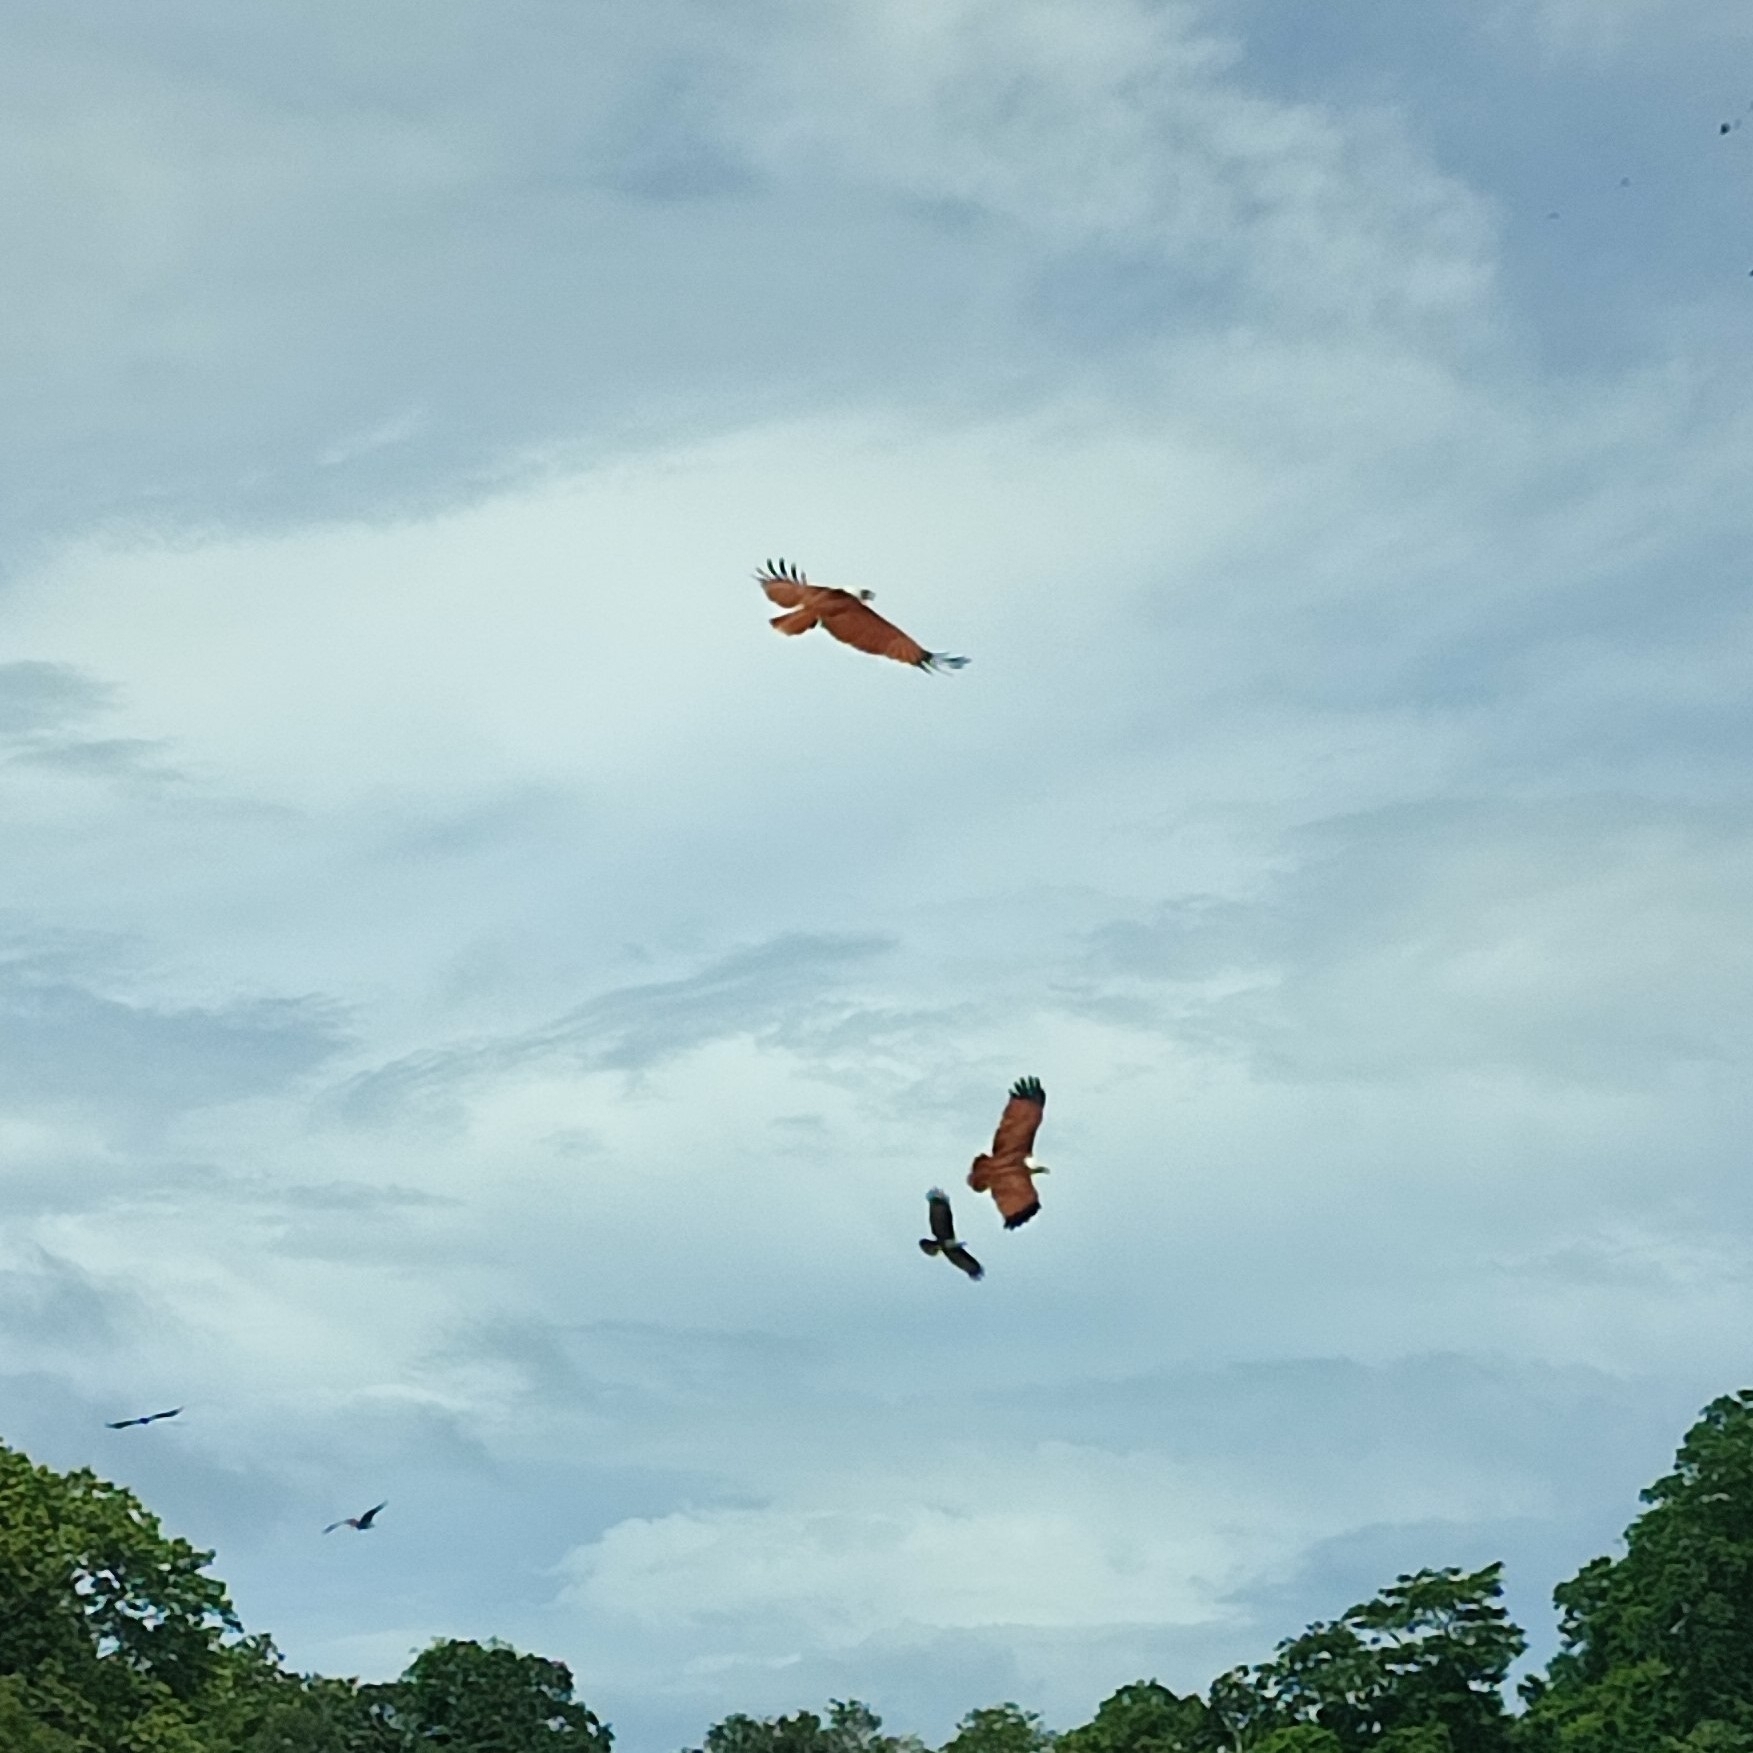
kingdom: Animalia
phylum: Chordata
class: Aves
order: Accipitriformes
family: Accipitridae
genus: Haliastur
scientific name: Haliastur indus
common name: Brahminy kite
